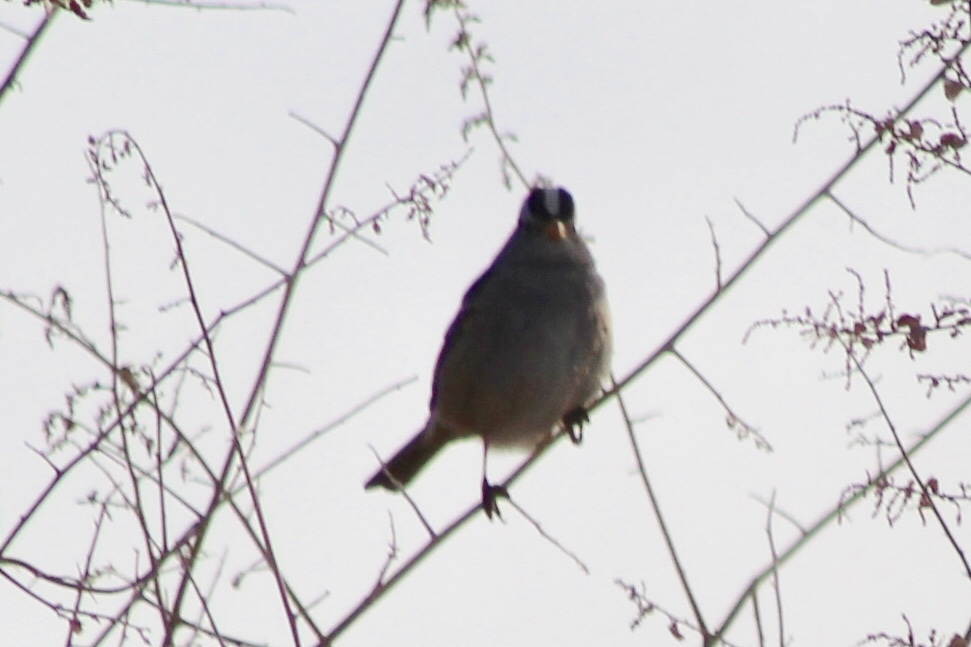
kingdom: Animalia
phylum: Chordata
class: Aves
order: Passeriformes
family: Passerellidae
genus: Zonotrichia
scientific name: Zonotrichia leucophrys
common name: White-crowned sparrow
